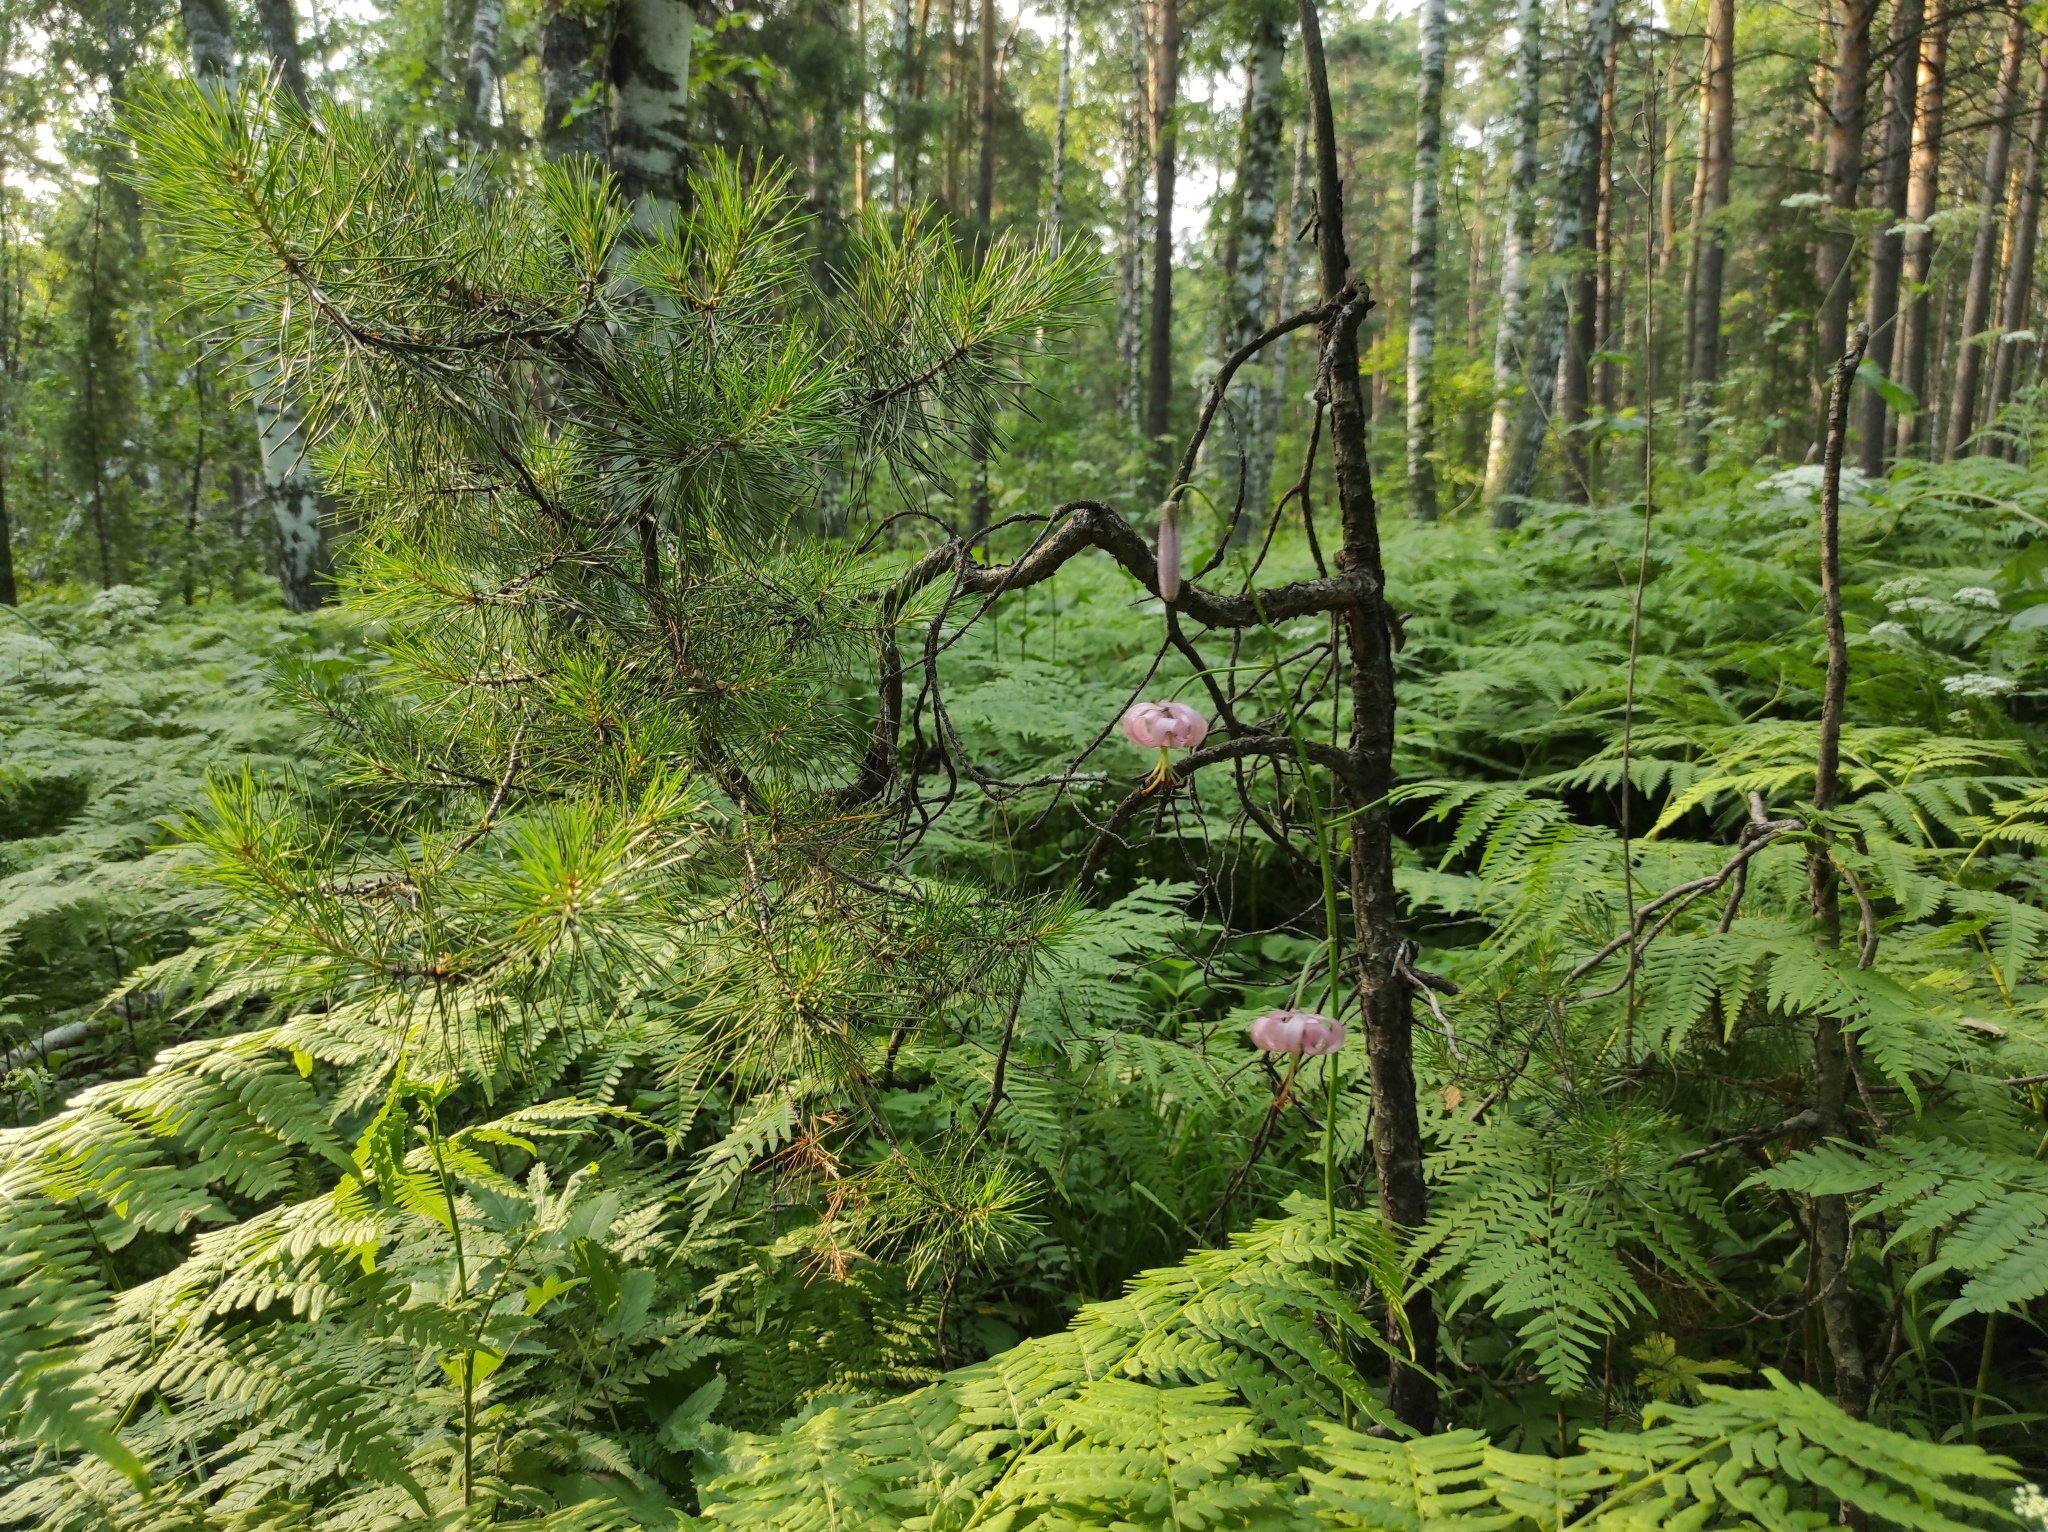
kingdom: Plantae
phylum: Tracheophyta
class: Pinopsida
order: Pinales
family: Pinaceae
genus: Pinus
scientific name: Pinus sylvestris
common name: Scots pine
